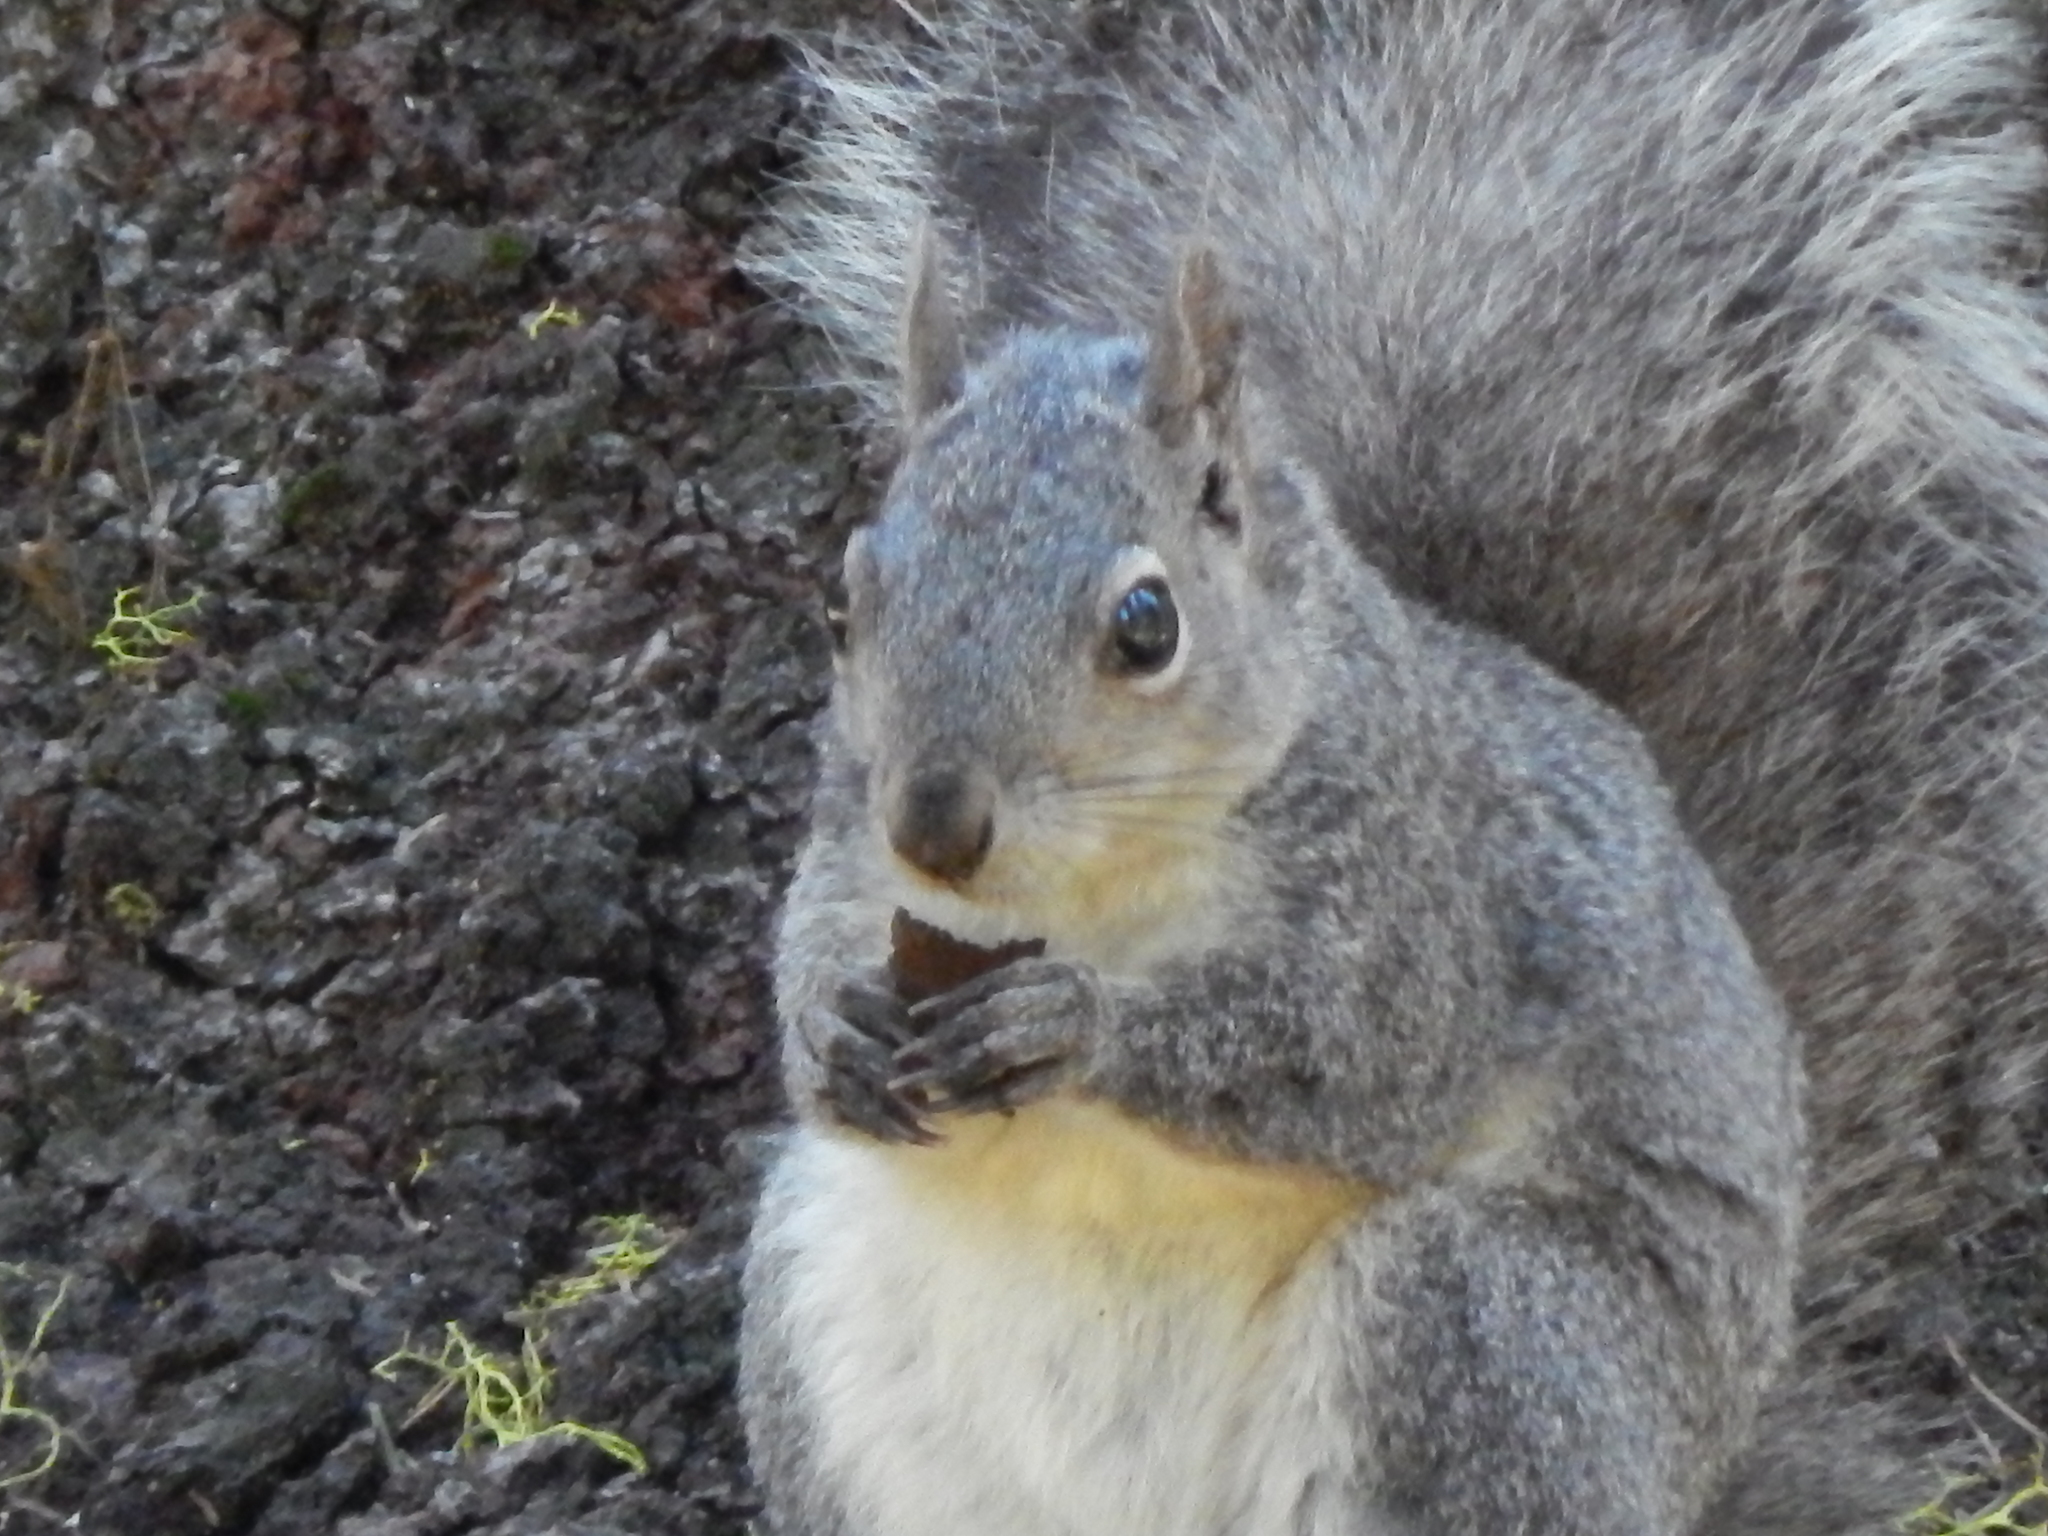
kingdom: Animalia
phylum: Chordata
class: Mammalia
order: Rodentia
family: Sciuridae
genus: Sciurus
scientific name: Sciurus griseus
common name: Western gray squirrel
